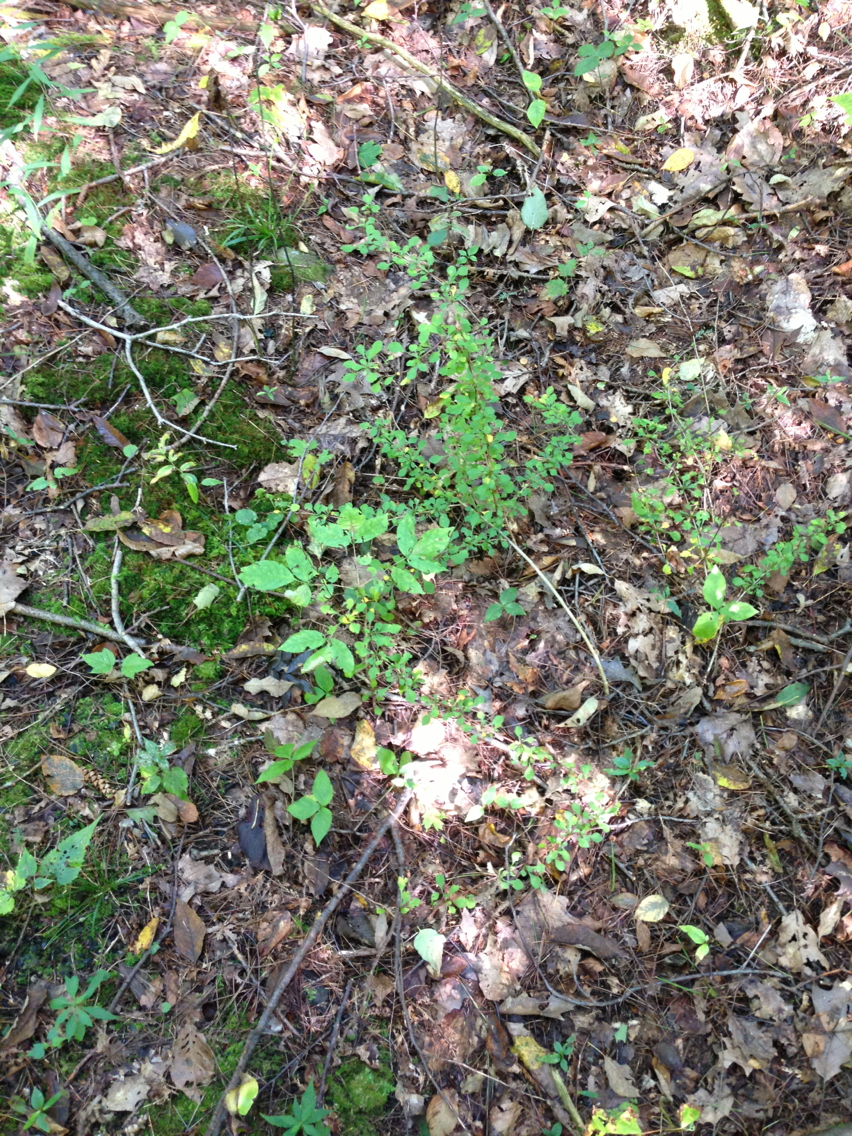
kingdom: Plantae
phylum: Tracheophyta
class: Magnoliopsida
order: Ranunculales
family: Berberidaceae
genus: Berberis
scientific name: Berberis thunbergii
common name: Japanese barberry
